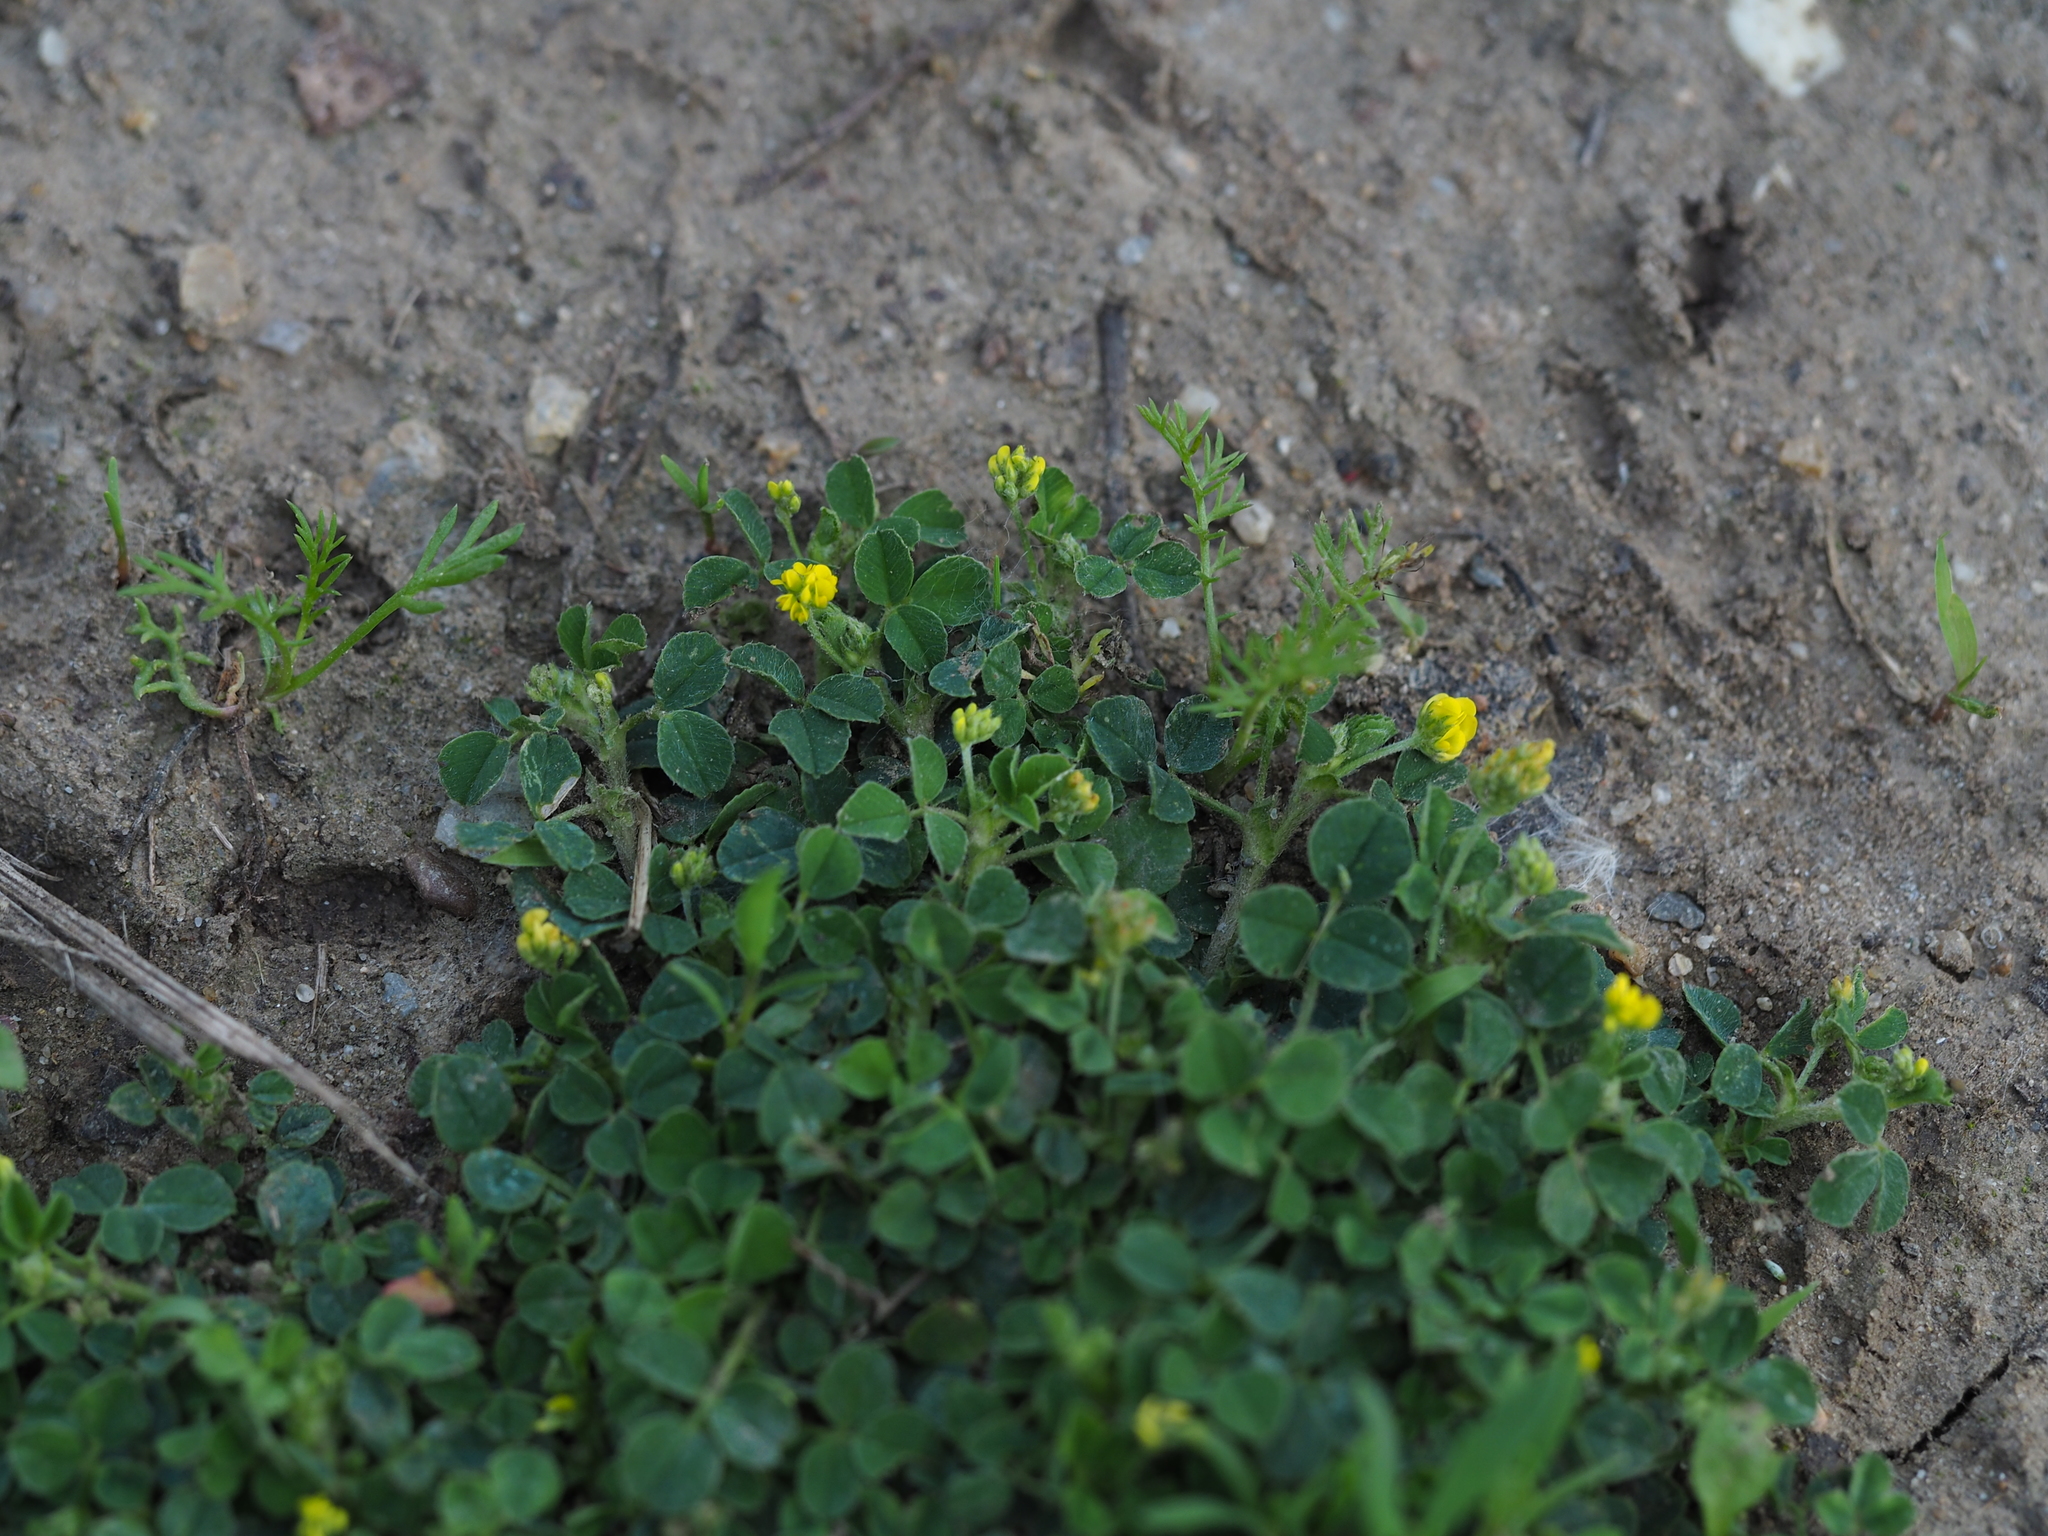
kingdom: Plantae
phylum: Tracheophyta
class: Magnoliopsida
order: Fabales
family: Fabaceae
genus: Medicago
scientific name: Medicago lupulina
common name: Black medick
